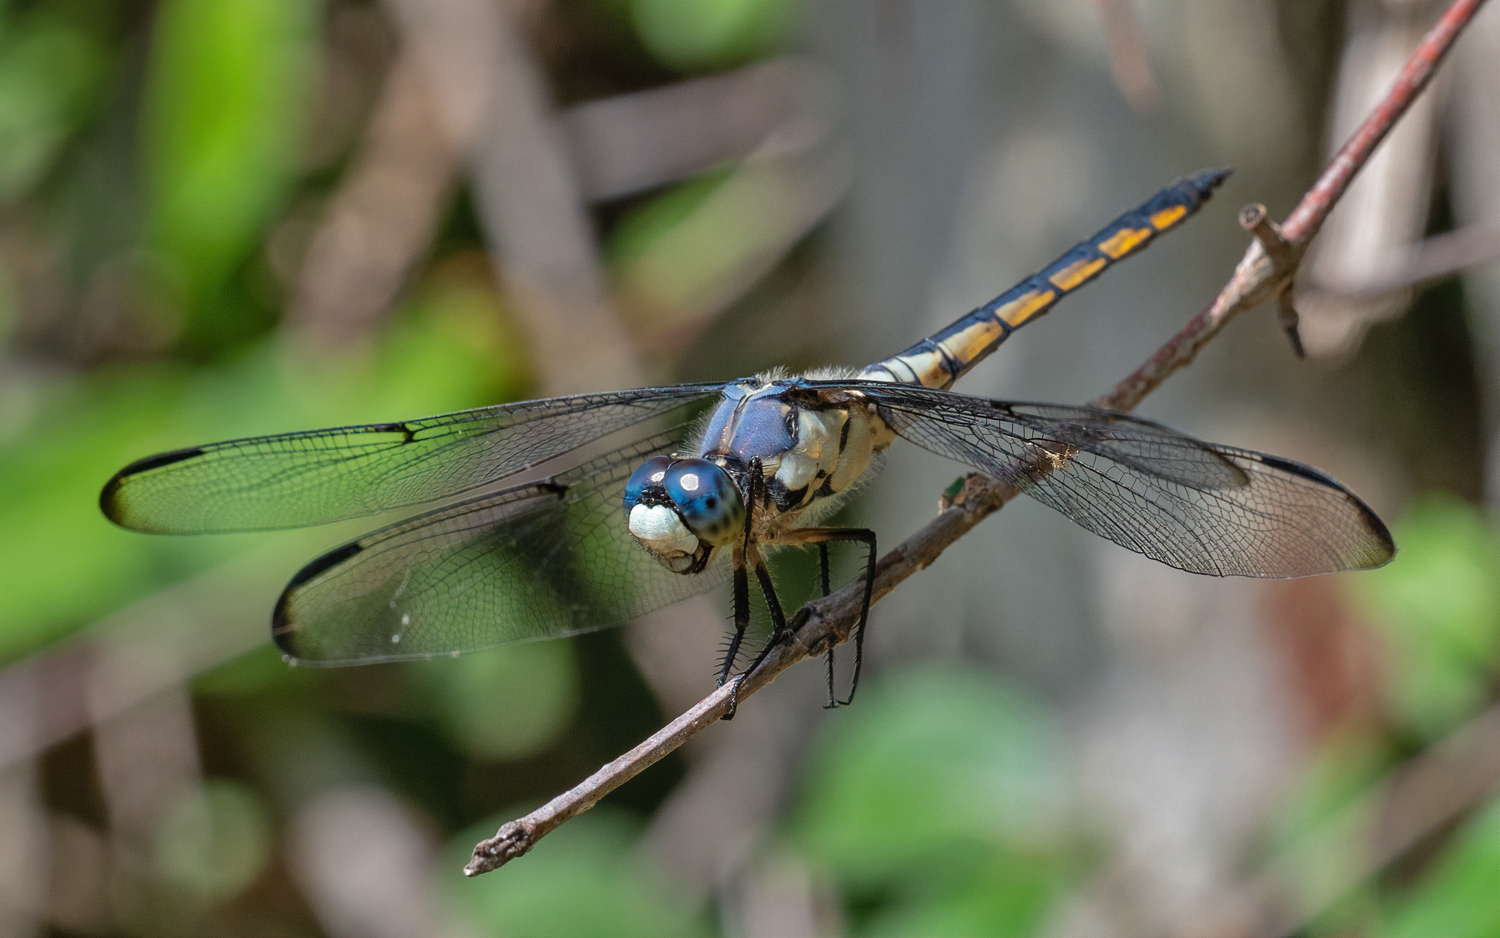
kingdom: Animalia
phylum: Arthropoda
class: Insecta
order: Odonata
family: Libellulidae
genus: Libellula
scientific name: Libellula vibrans
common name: Great blue skimmer
